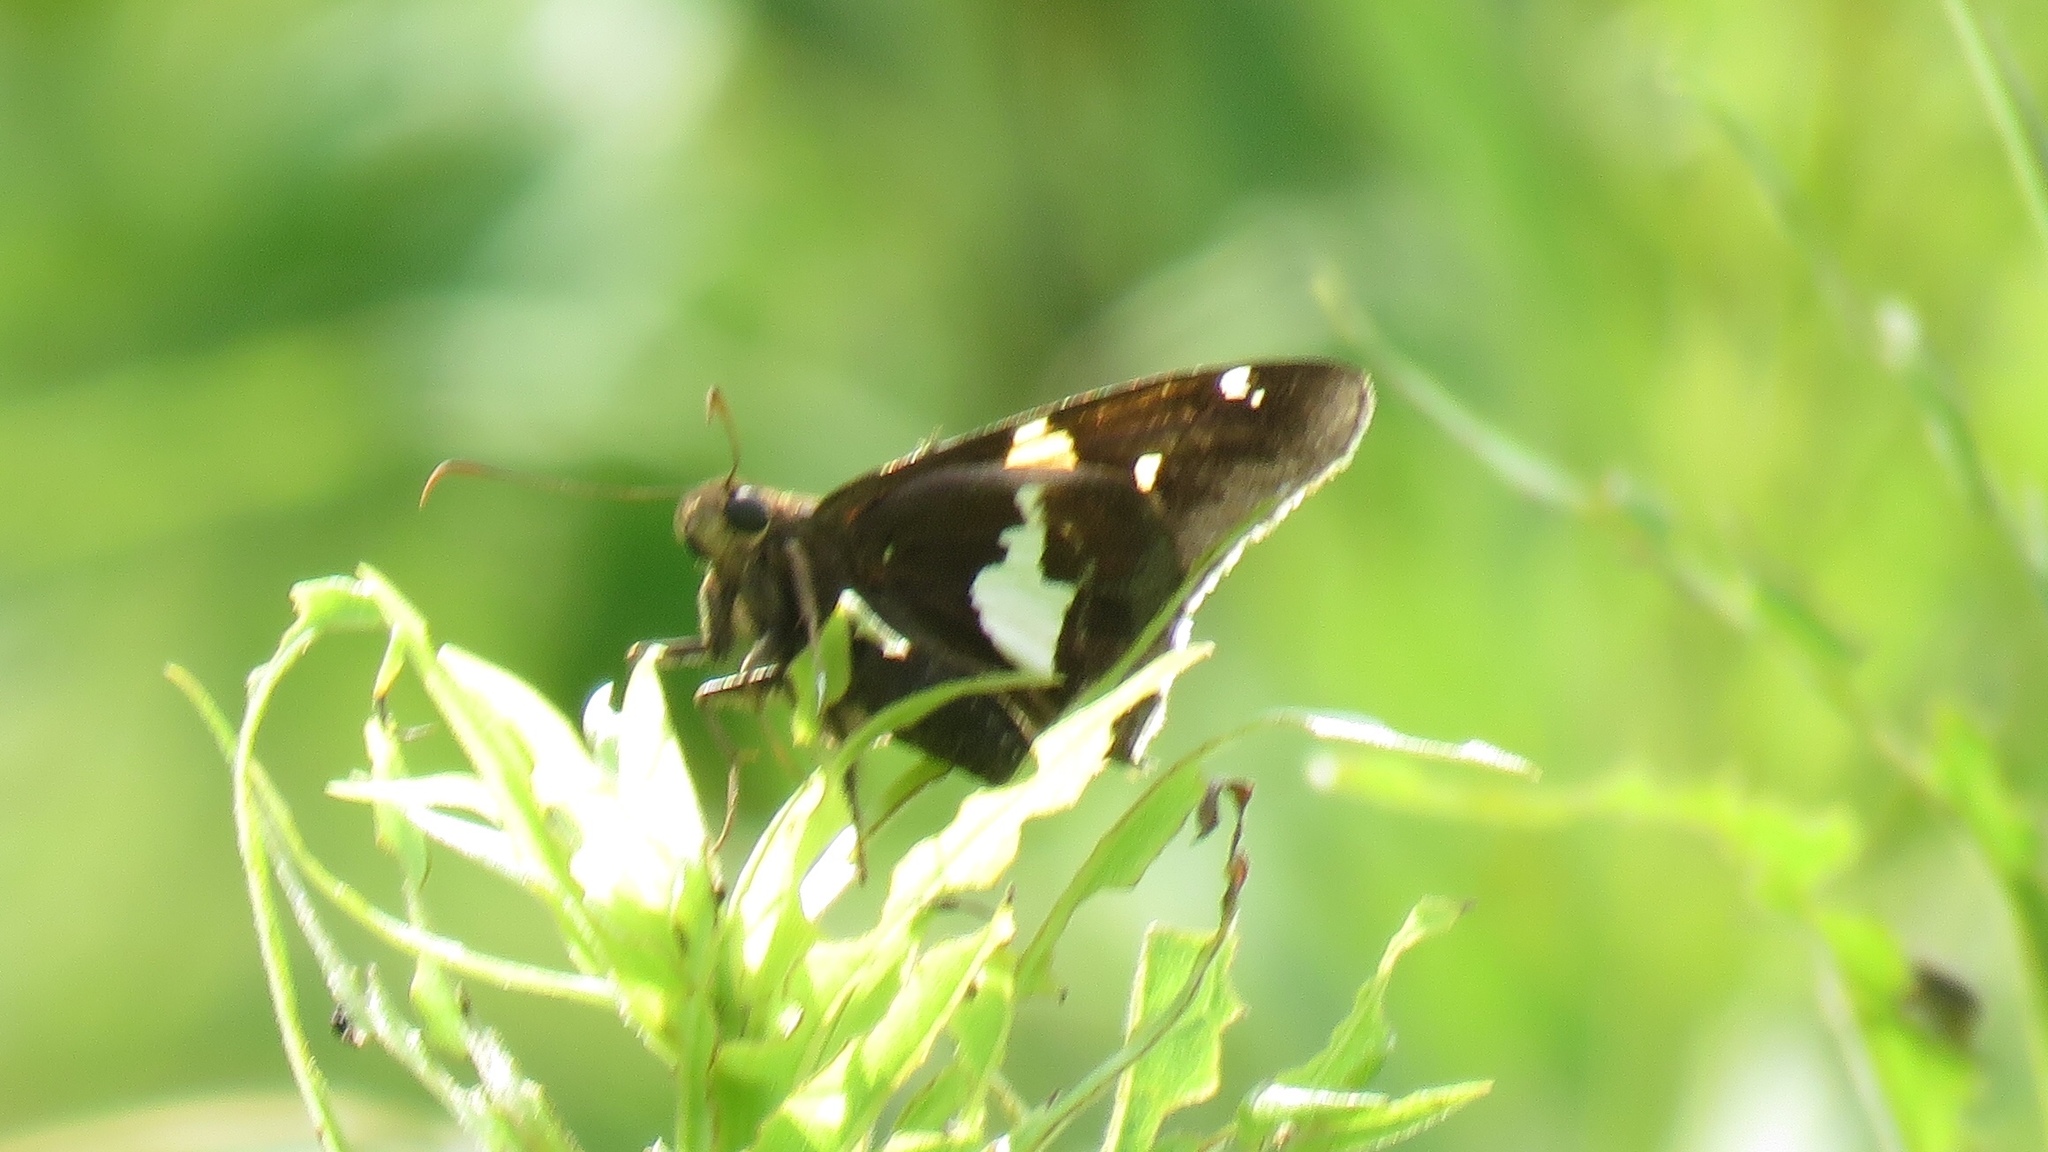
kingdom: Animalia
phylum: Arthropoda
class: Insecta
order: Lepidoptera
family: Hesperiidae
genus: Epargyreus
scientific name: Epargyreus clarus
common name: Silver-spotted skipper
